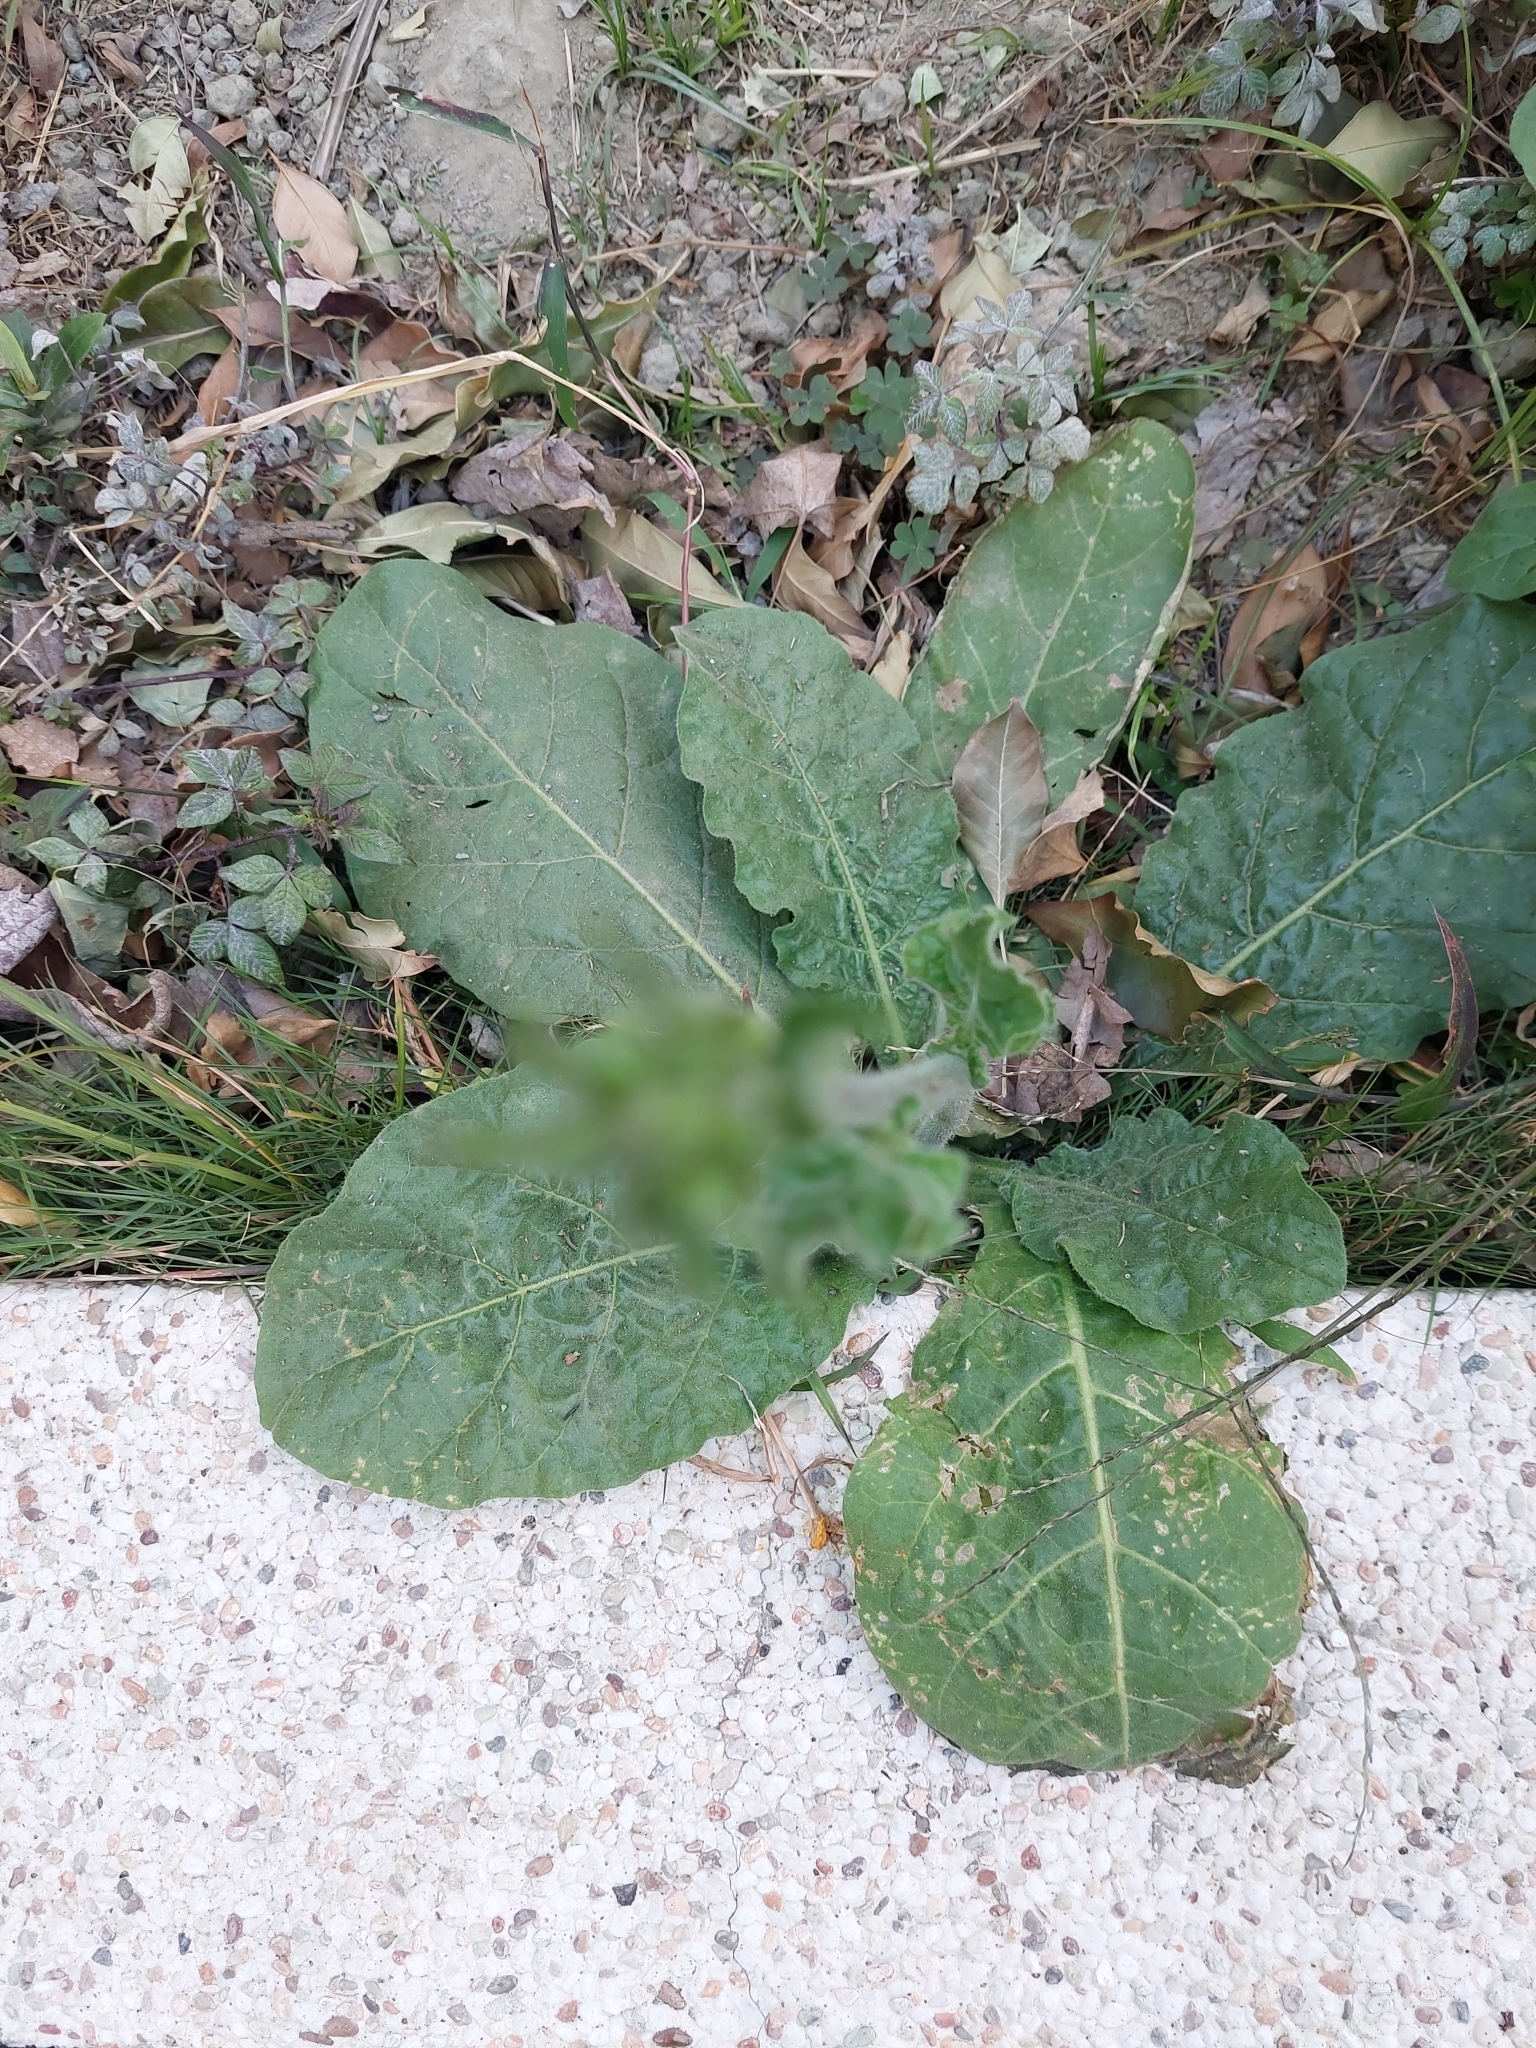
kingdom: Plantae
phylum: Tracheophyta
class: Magnoliopsida
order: Solanales
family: Solanaceae
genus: Nicotiana
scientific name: Nicotiana plumbaginifolia
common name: Tex-mex tobacco
